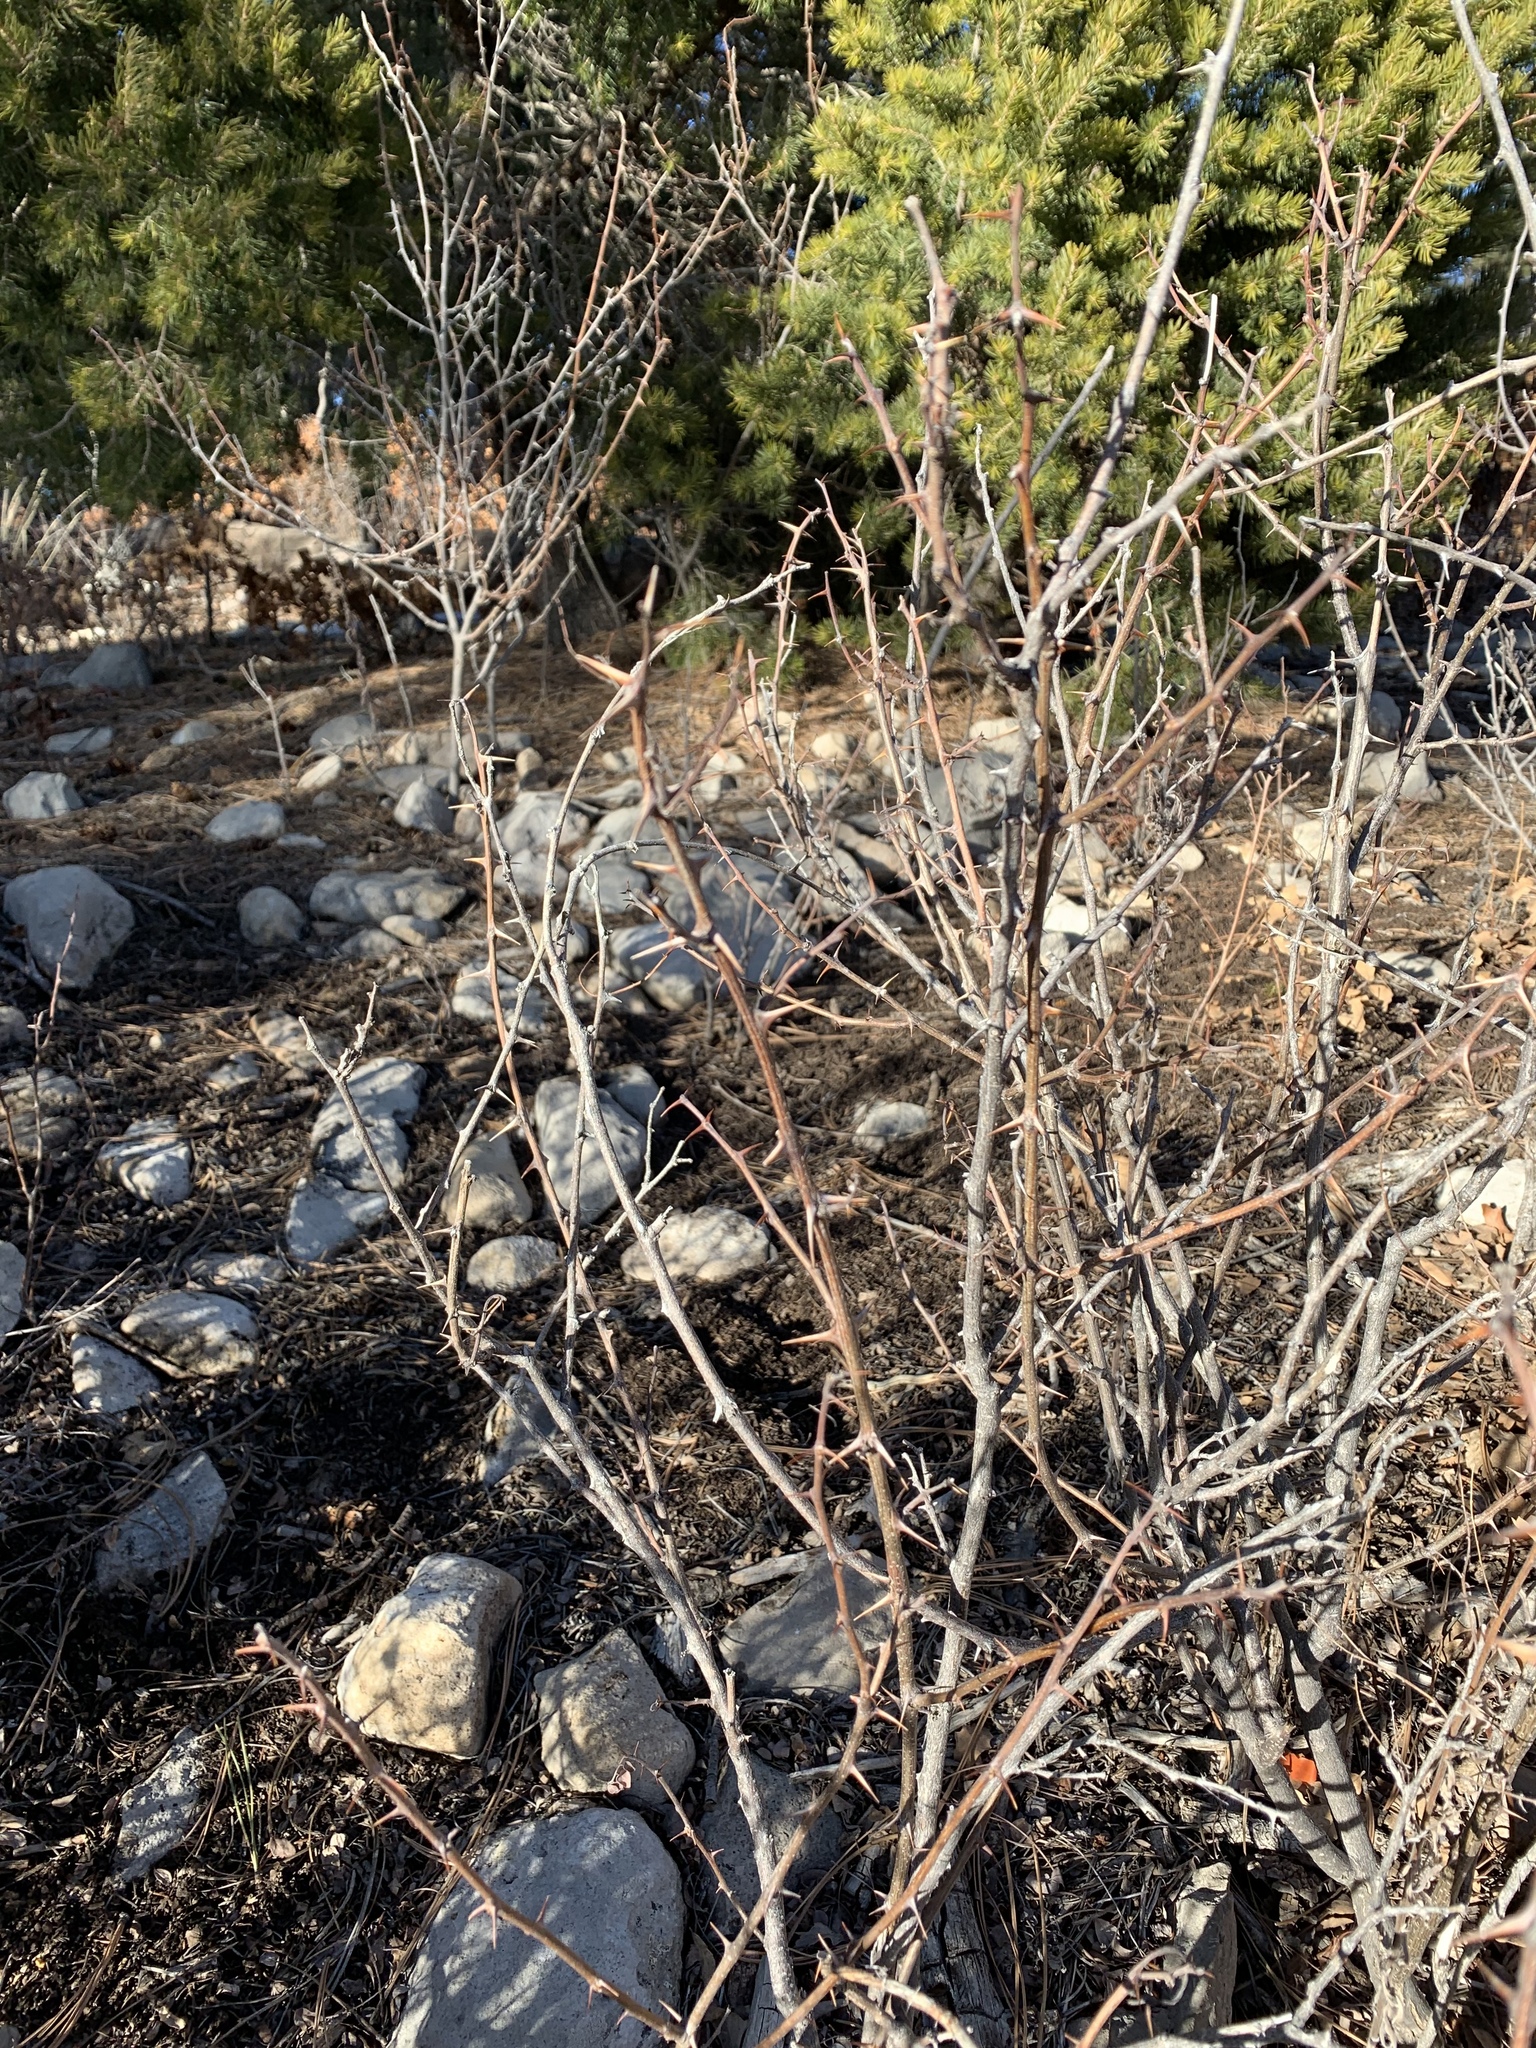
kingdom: Plantae
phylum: Tracheophyta
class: Magnoliopsida
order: Fabales
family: Fabaceae
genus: Robinia
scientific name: Robinia neomexicana
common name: New mexico locust
